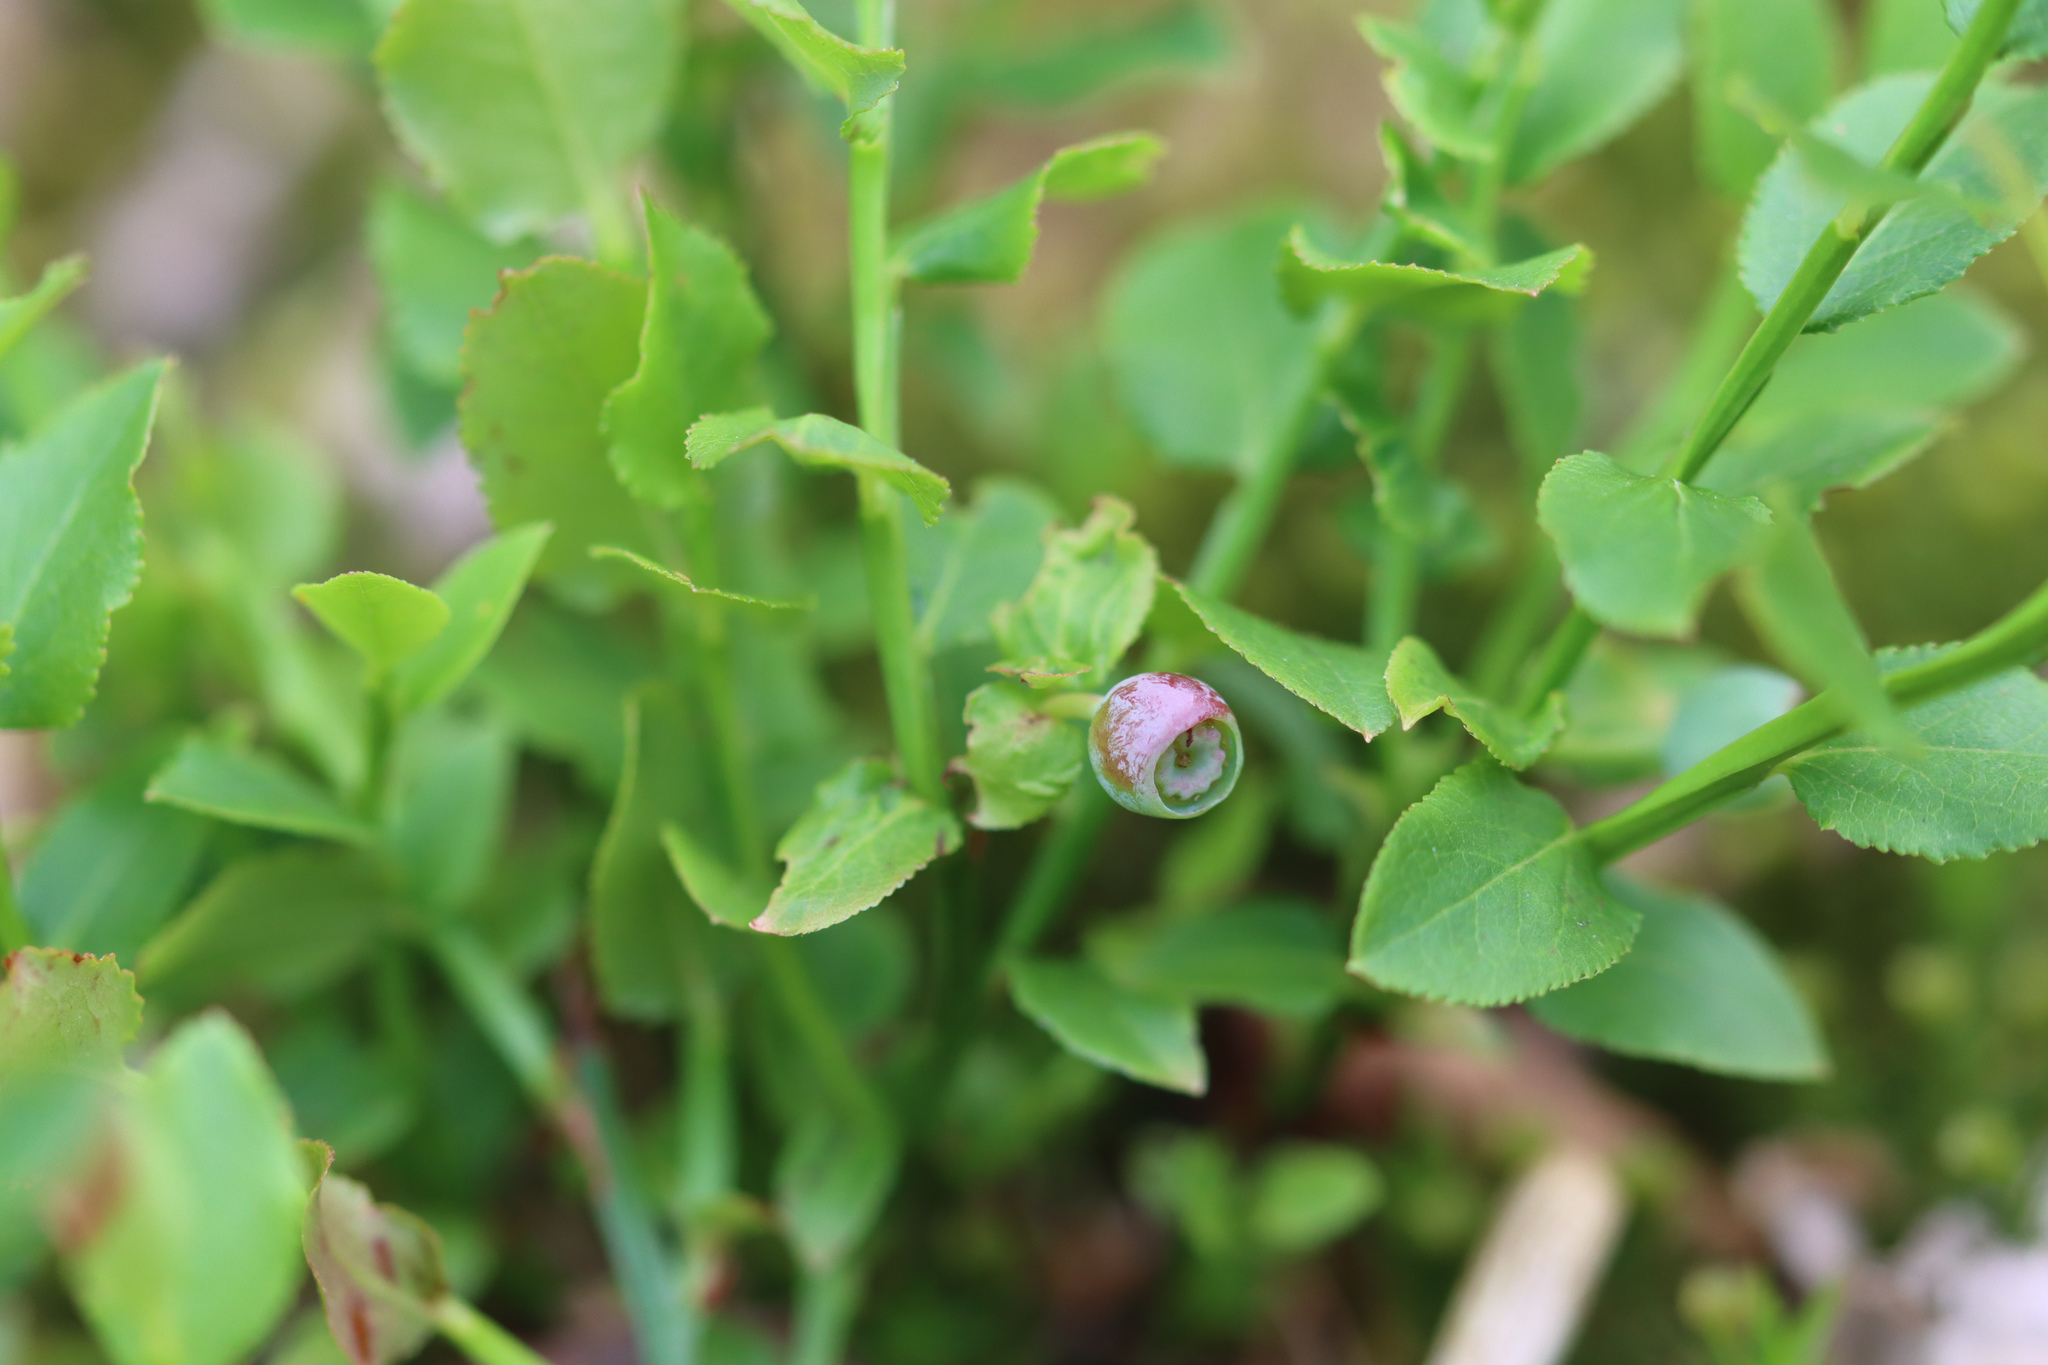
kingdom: Plantae
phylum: Tracheophyta
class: Magnoliopsida
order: Ericales
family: Ericaceae
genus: Vaccinium
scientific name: Vaccinium myrtillus
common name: Bilberry
